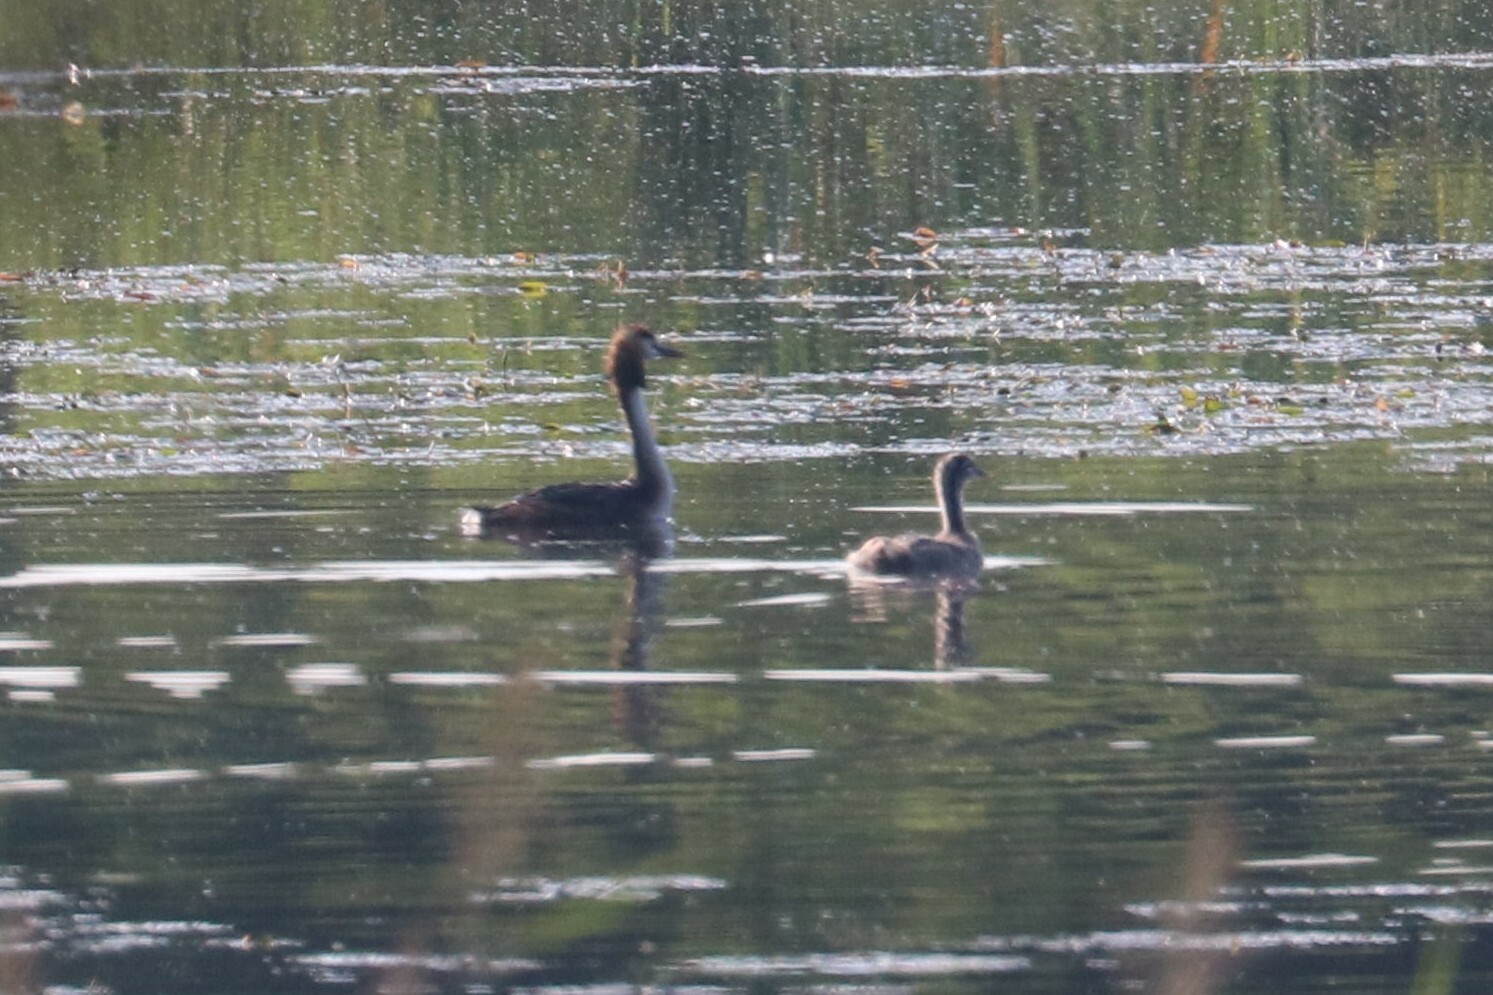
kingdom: Animalia
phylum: Chordata
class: Aves
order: Podicipediformes
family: Podicipedidae
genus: Podiceps
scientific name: Podiceps cristatus
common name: Great crested grebe
